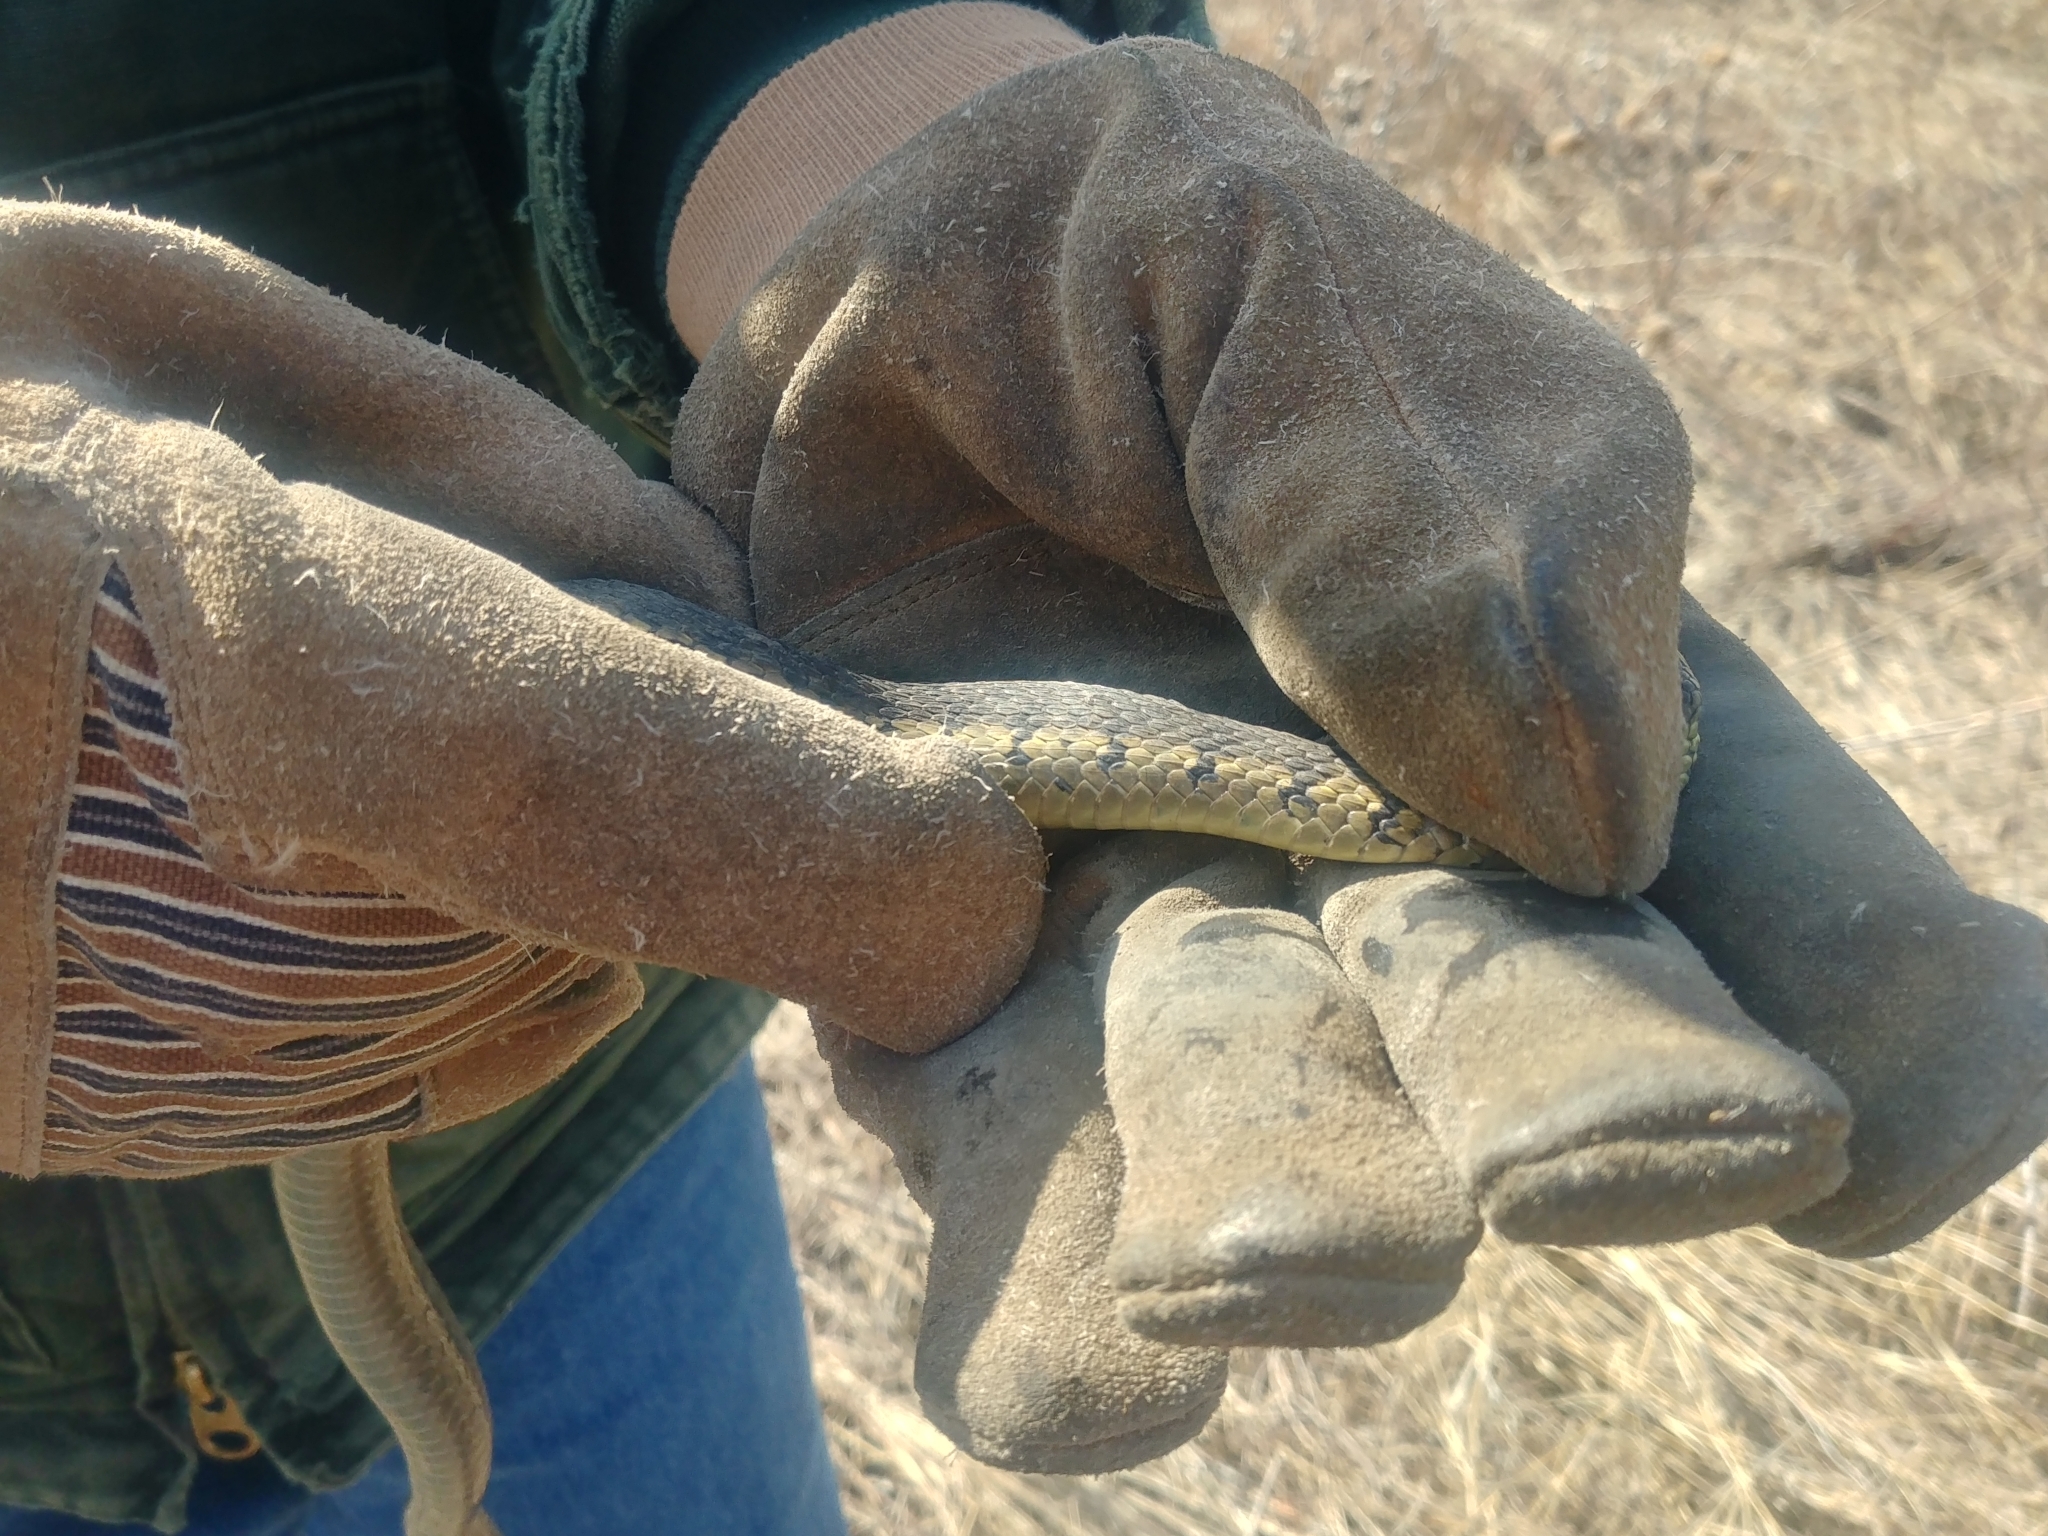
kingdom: Animalia
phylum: Chordata
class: Squamata
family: Colubridae
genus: Thamnophis
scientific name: Thamnophis sirtalis
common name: Common garter snake
